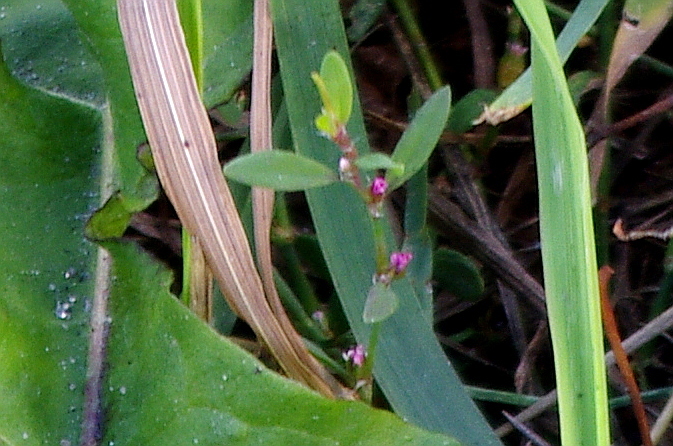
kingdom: Plantae
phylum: Tracheophyta
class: Magnoliopsida
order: Caryophyllales
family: Polygonaceae
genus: Polygonum
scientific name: Polygonum
